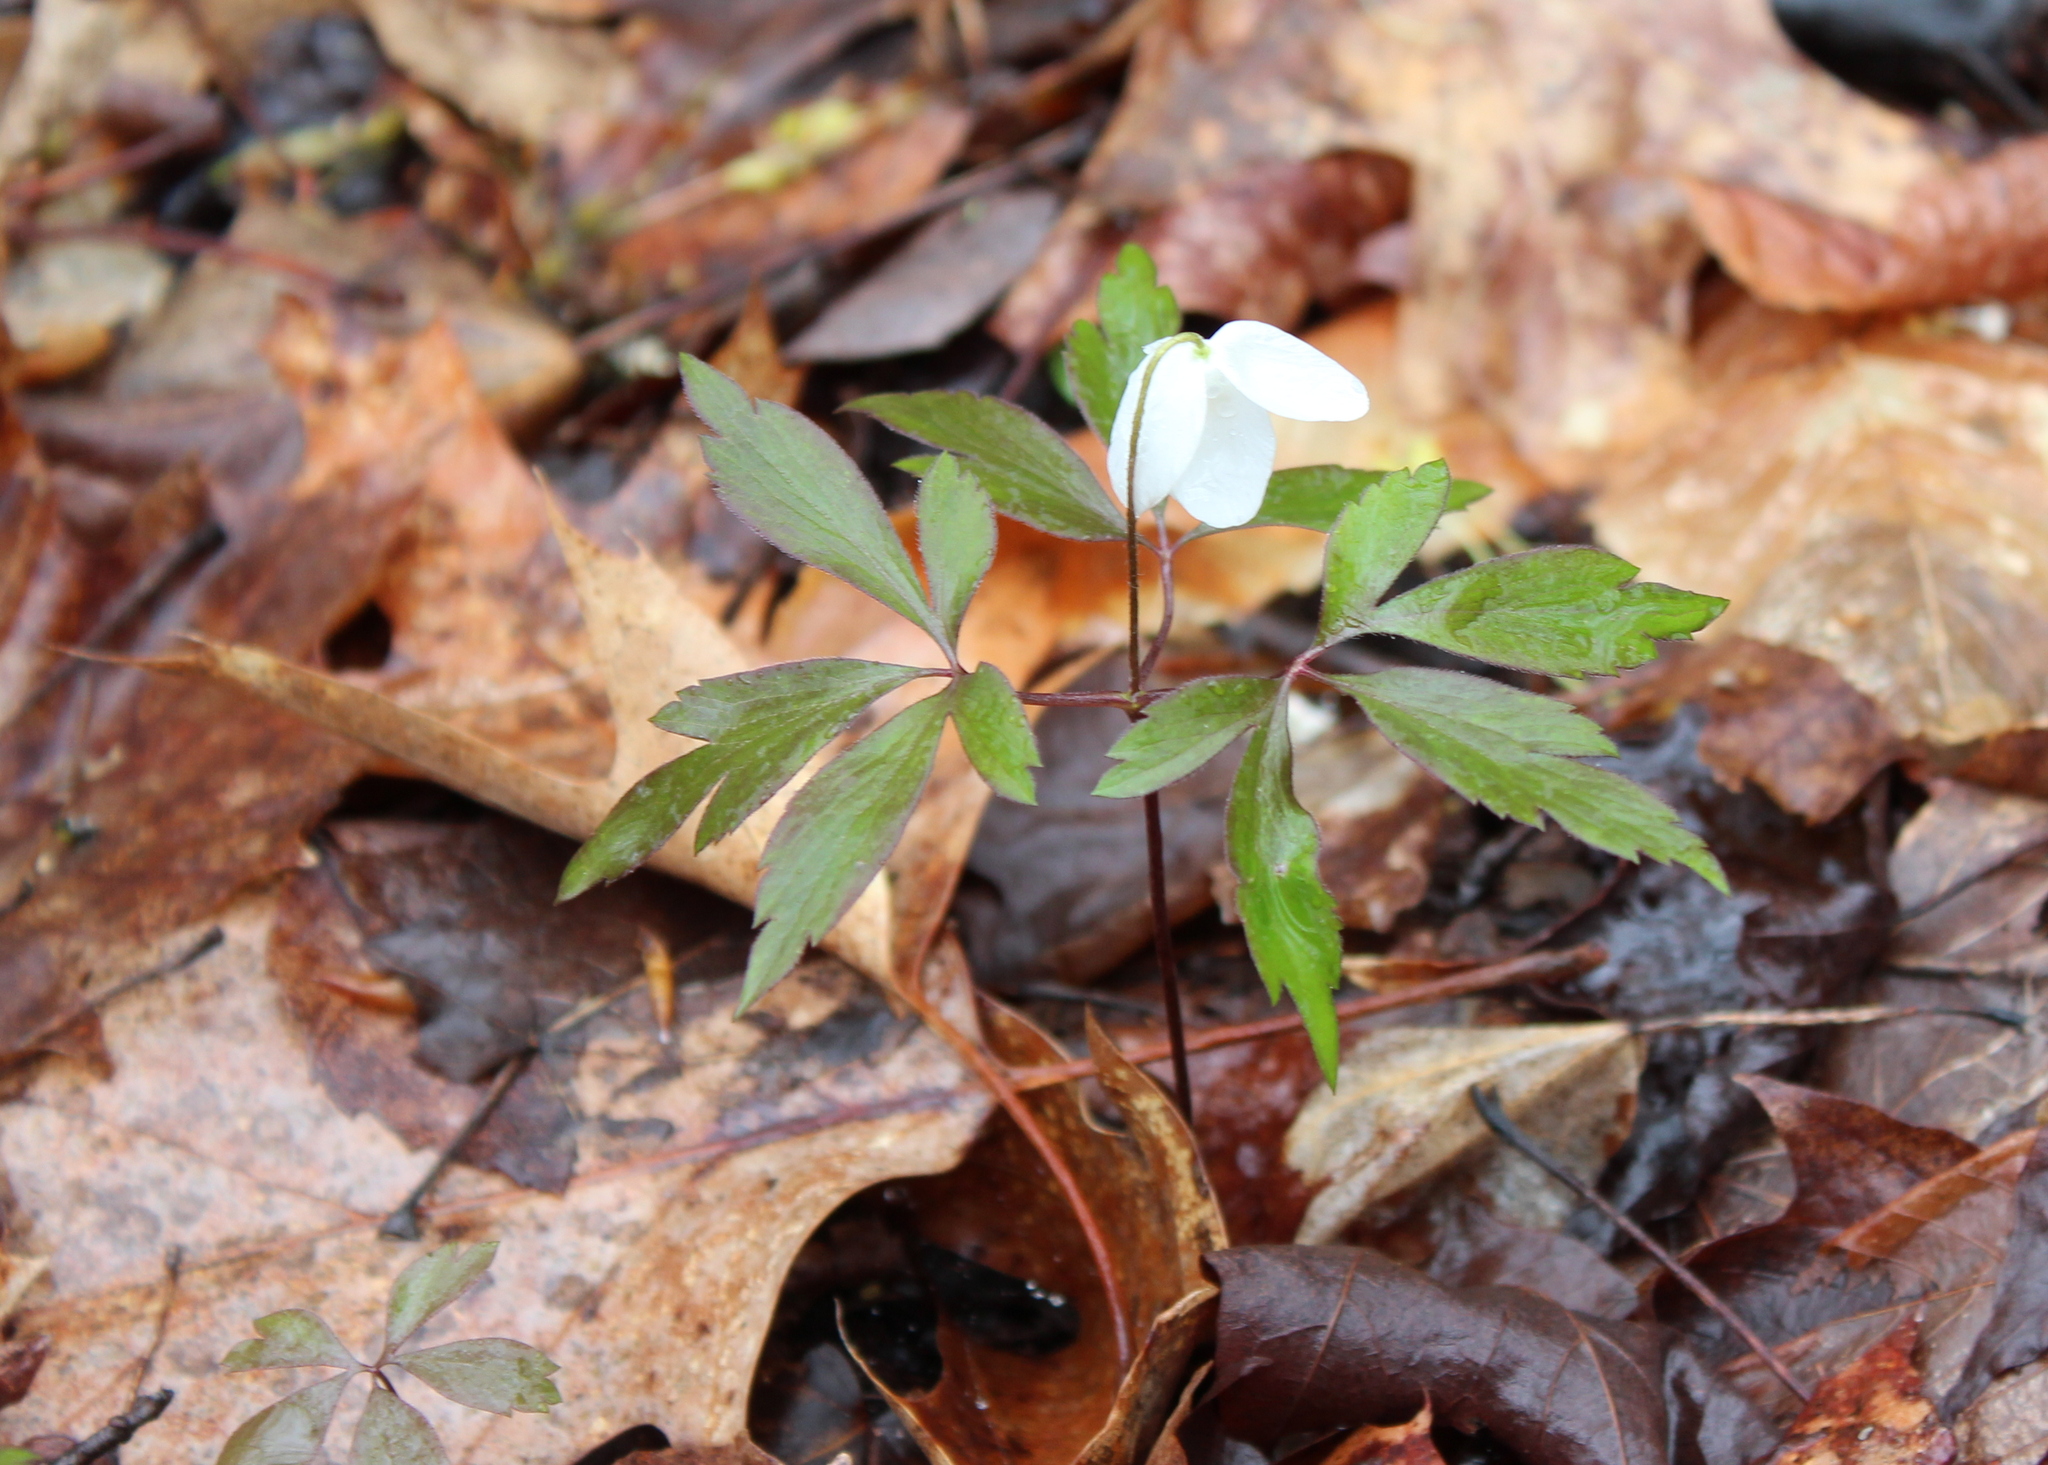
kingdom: Plantae
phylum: Tracheophyta
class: Magnoliopsida
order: Ranunculales
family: Ranunculaceae
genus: Anemone
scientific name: Anemone quinquefolia
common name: Wood anemone
